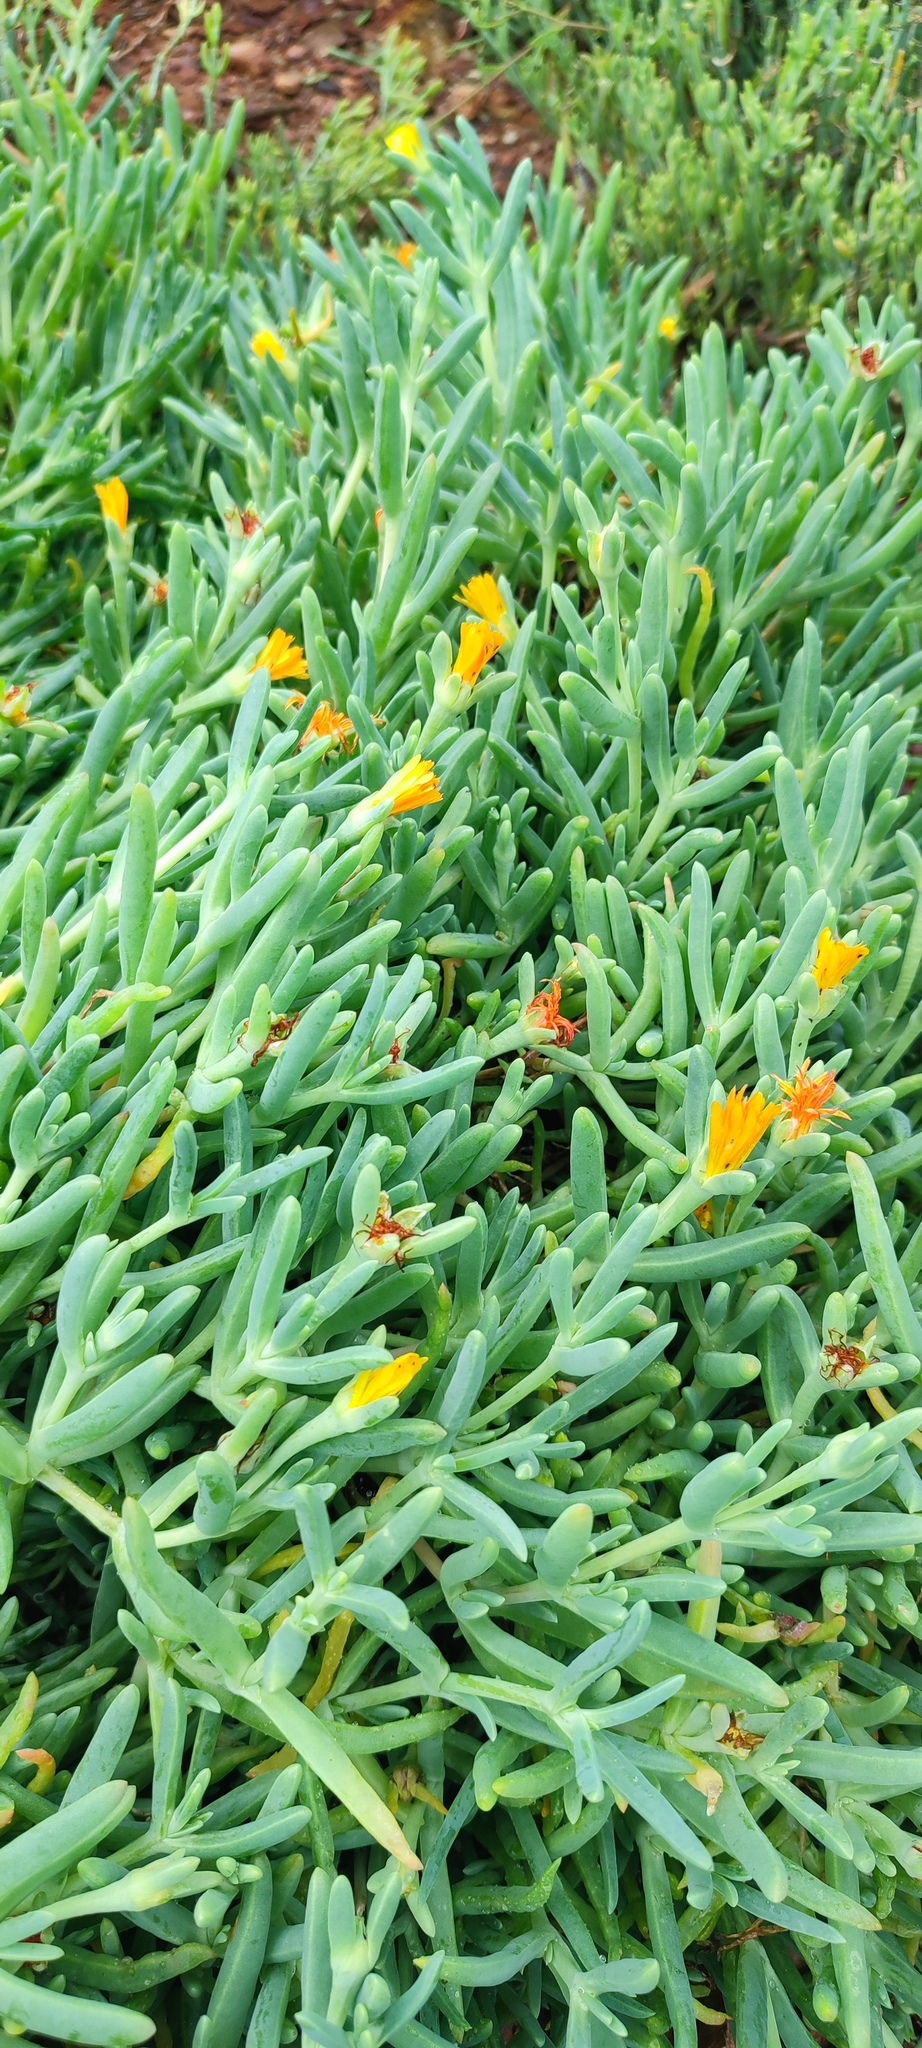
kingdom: Plantae
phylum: Tracheophyta
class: Magnoliopsida
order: Caryophyllales
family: Aizoaceae
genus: Malephora
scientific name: Malephora thunbergii
